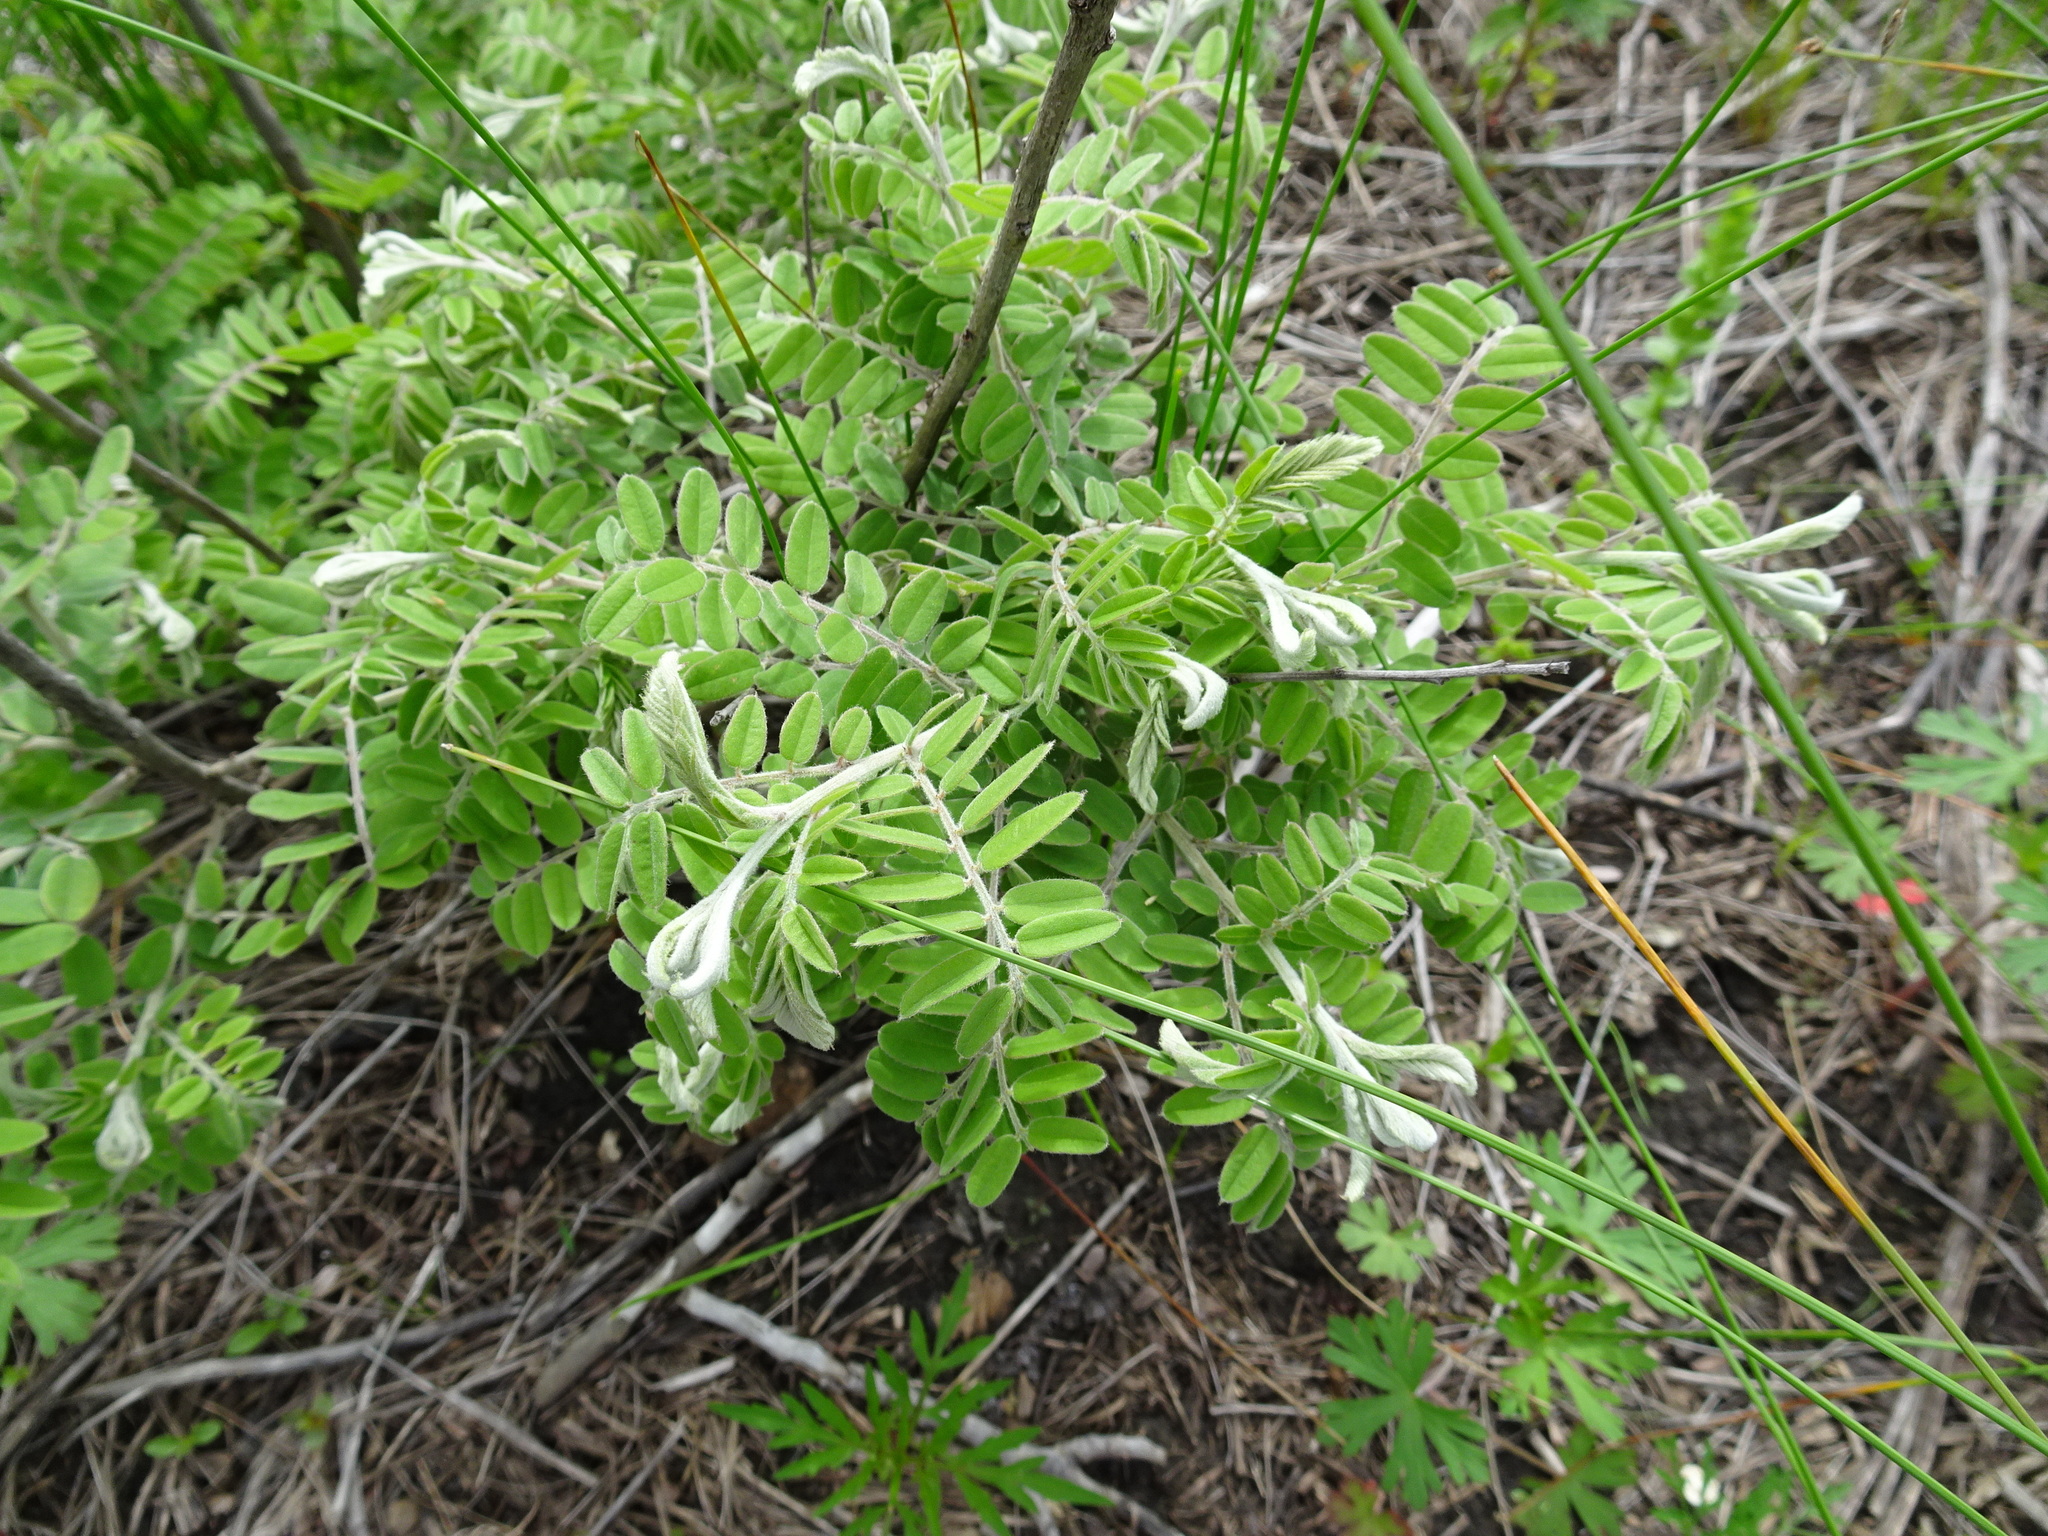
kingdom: Plantae
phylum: Tracheophyta
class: Magnoliopsida
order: Fabales
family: Fabaceae
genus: Amorpha
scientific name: Amorpha canescens
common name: Leadplant
